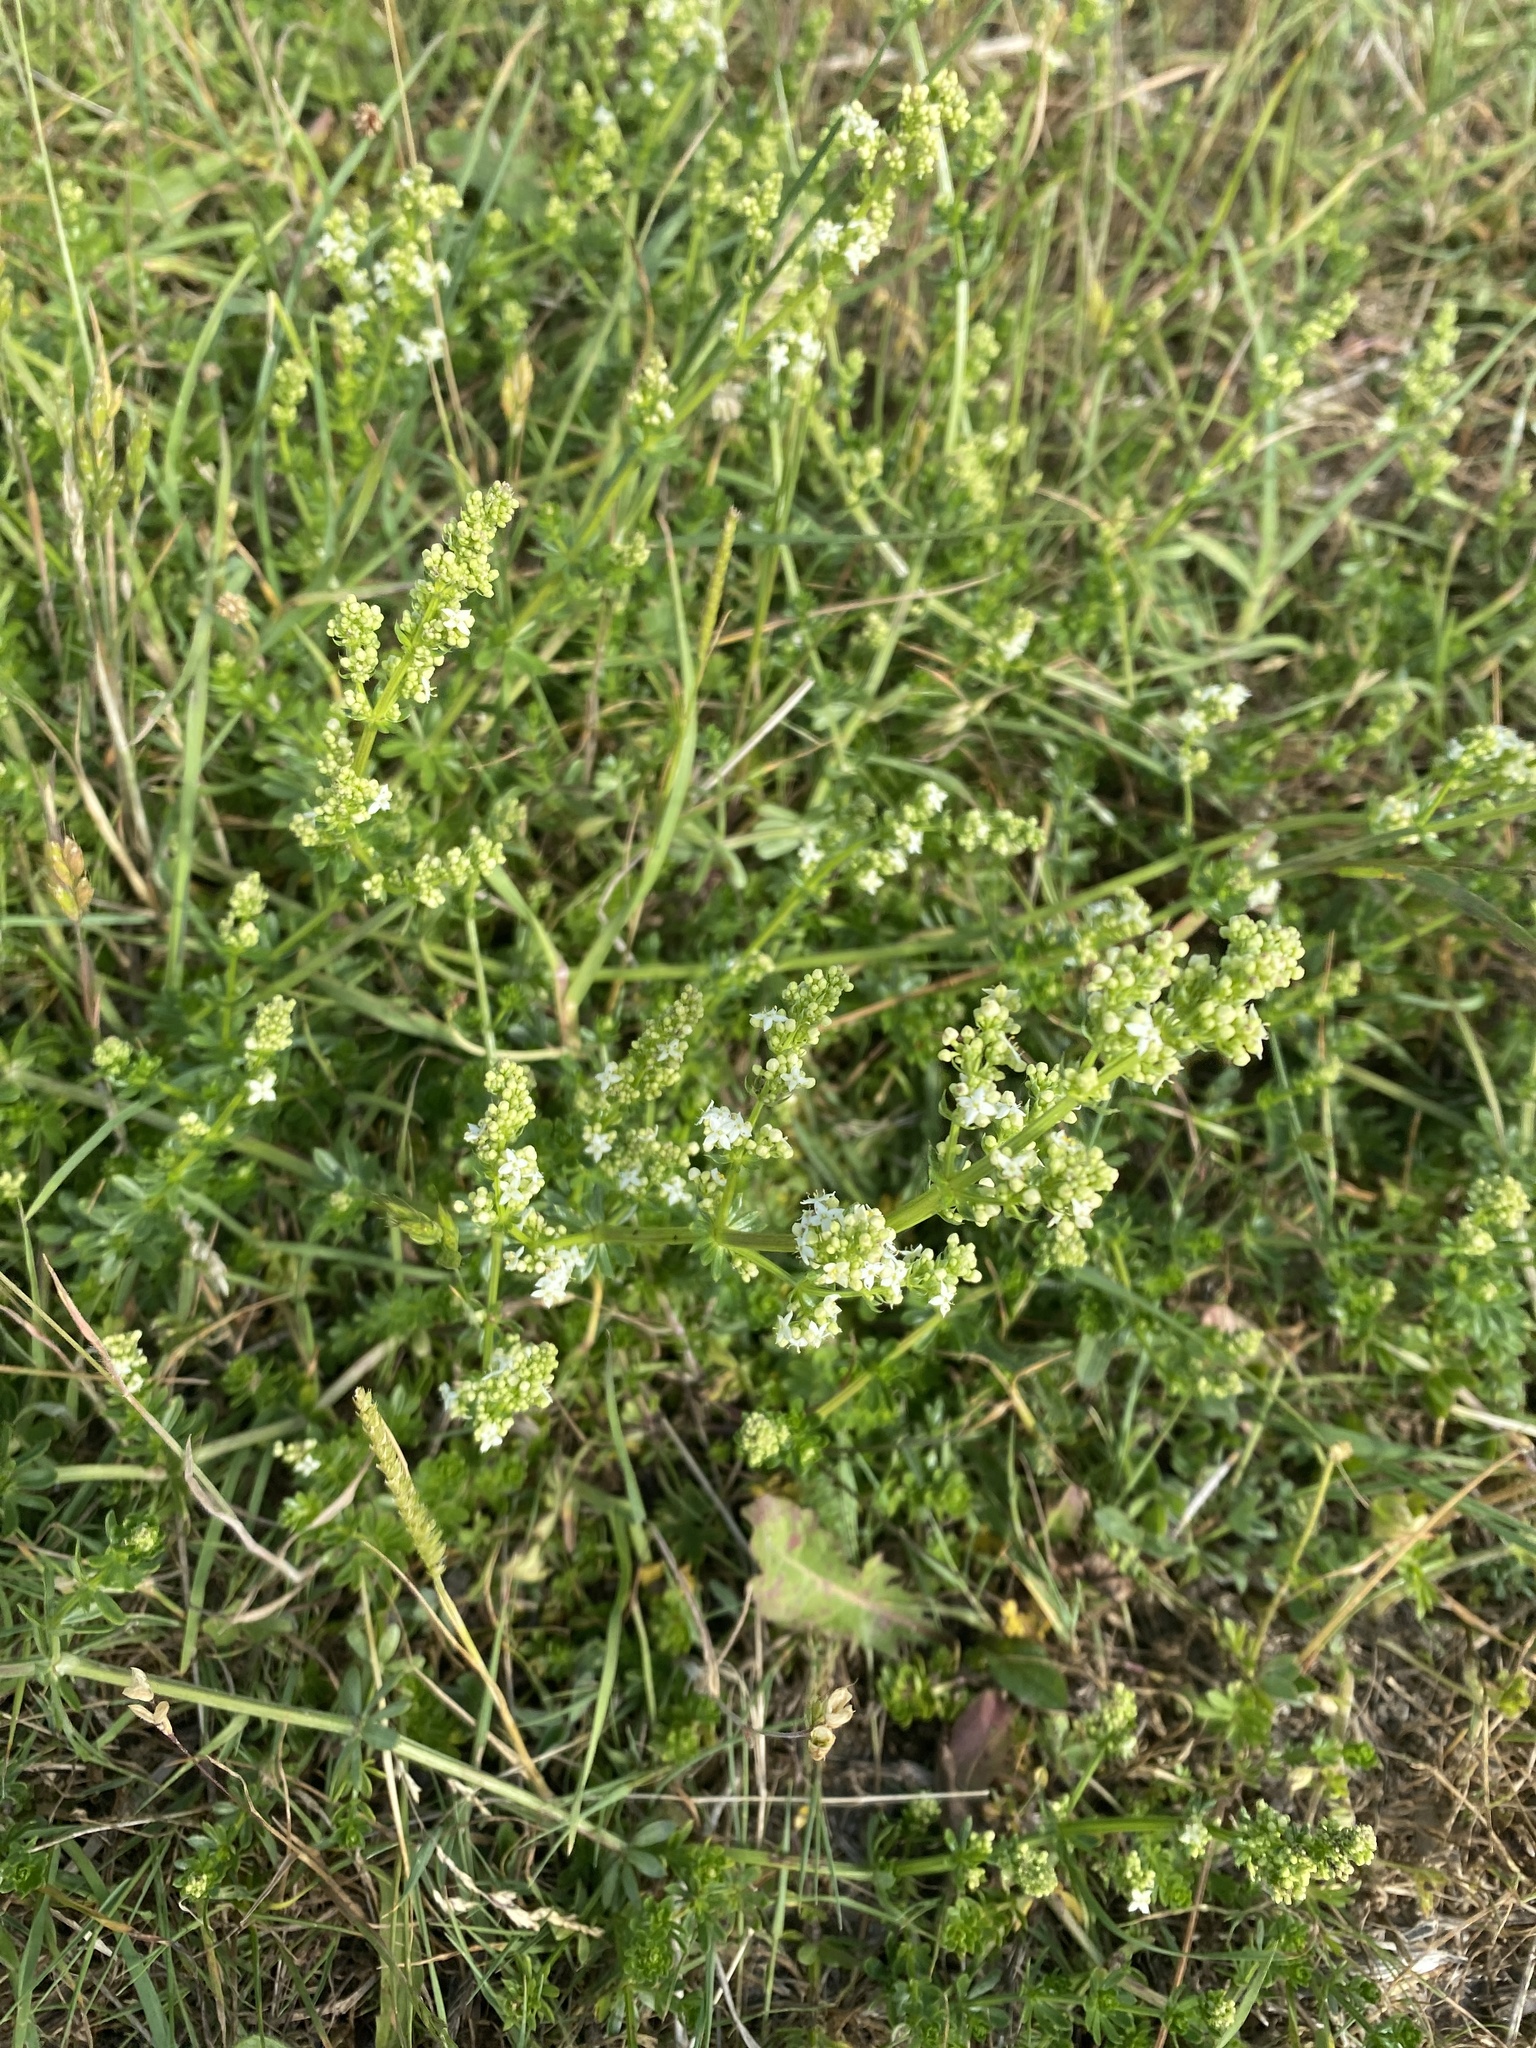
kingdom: Plantae
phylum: Tracheophyta
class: Magnoliopsida
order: Gentianales
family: Rubiaceae
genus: Galium
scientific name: Galium album
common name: White bedstraw
